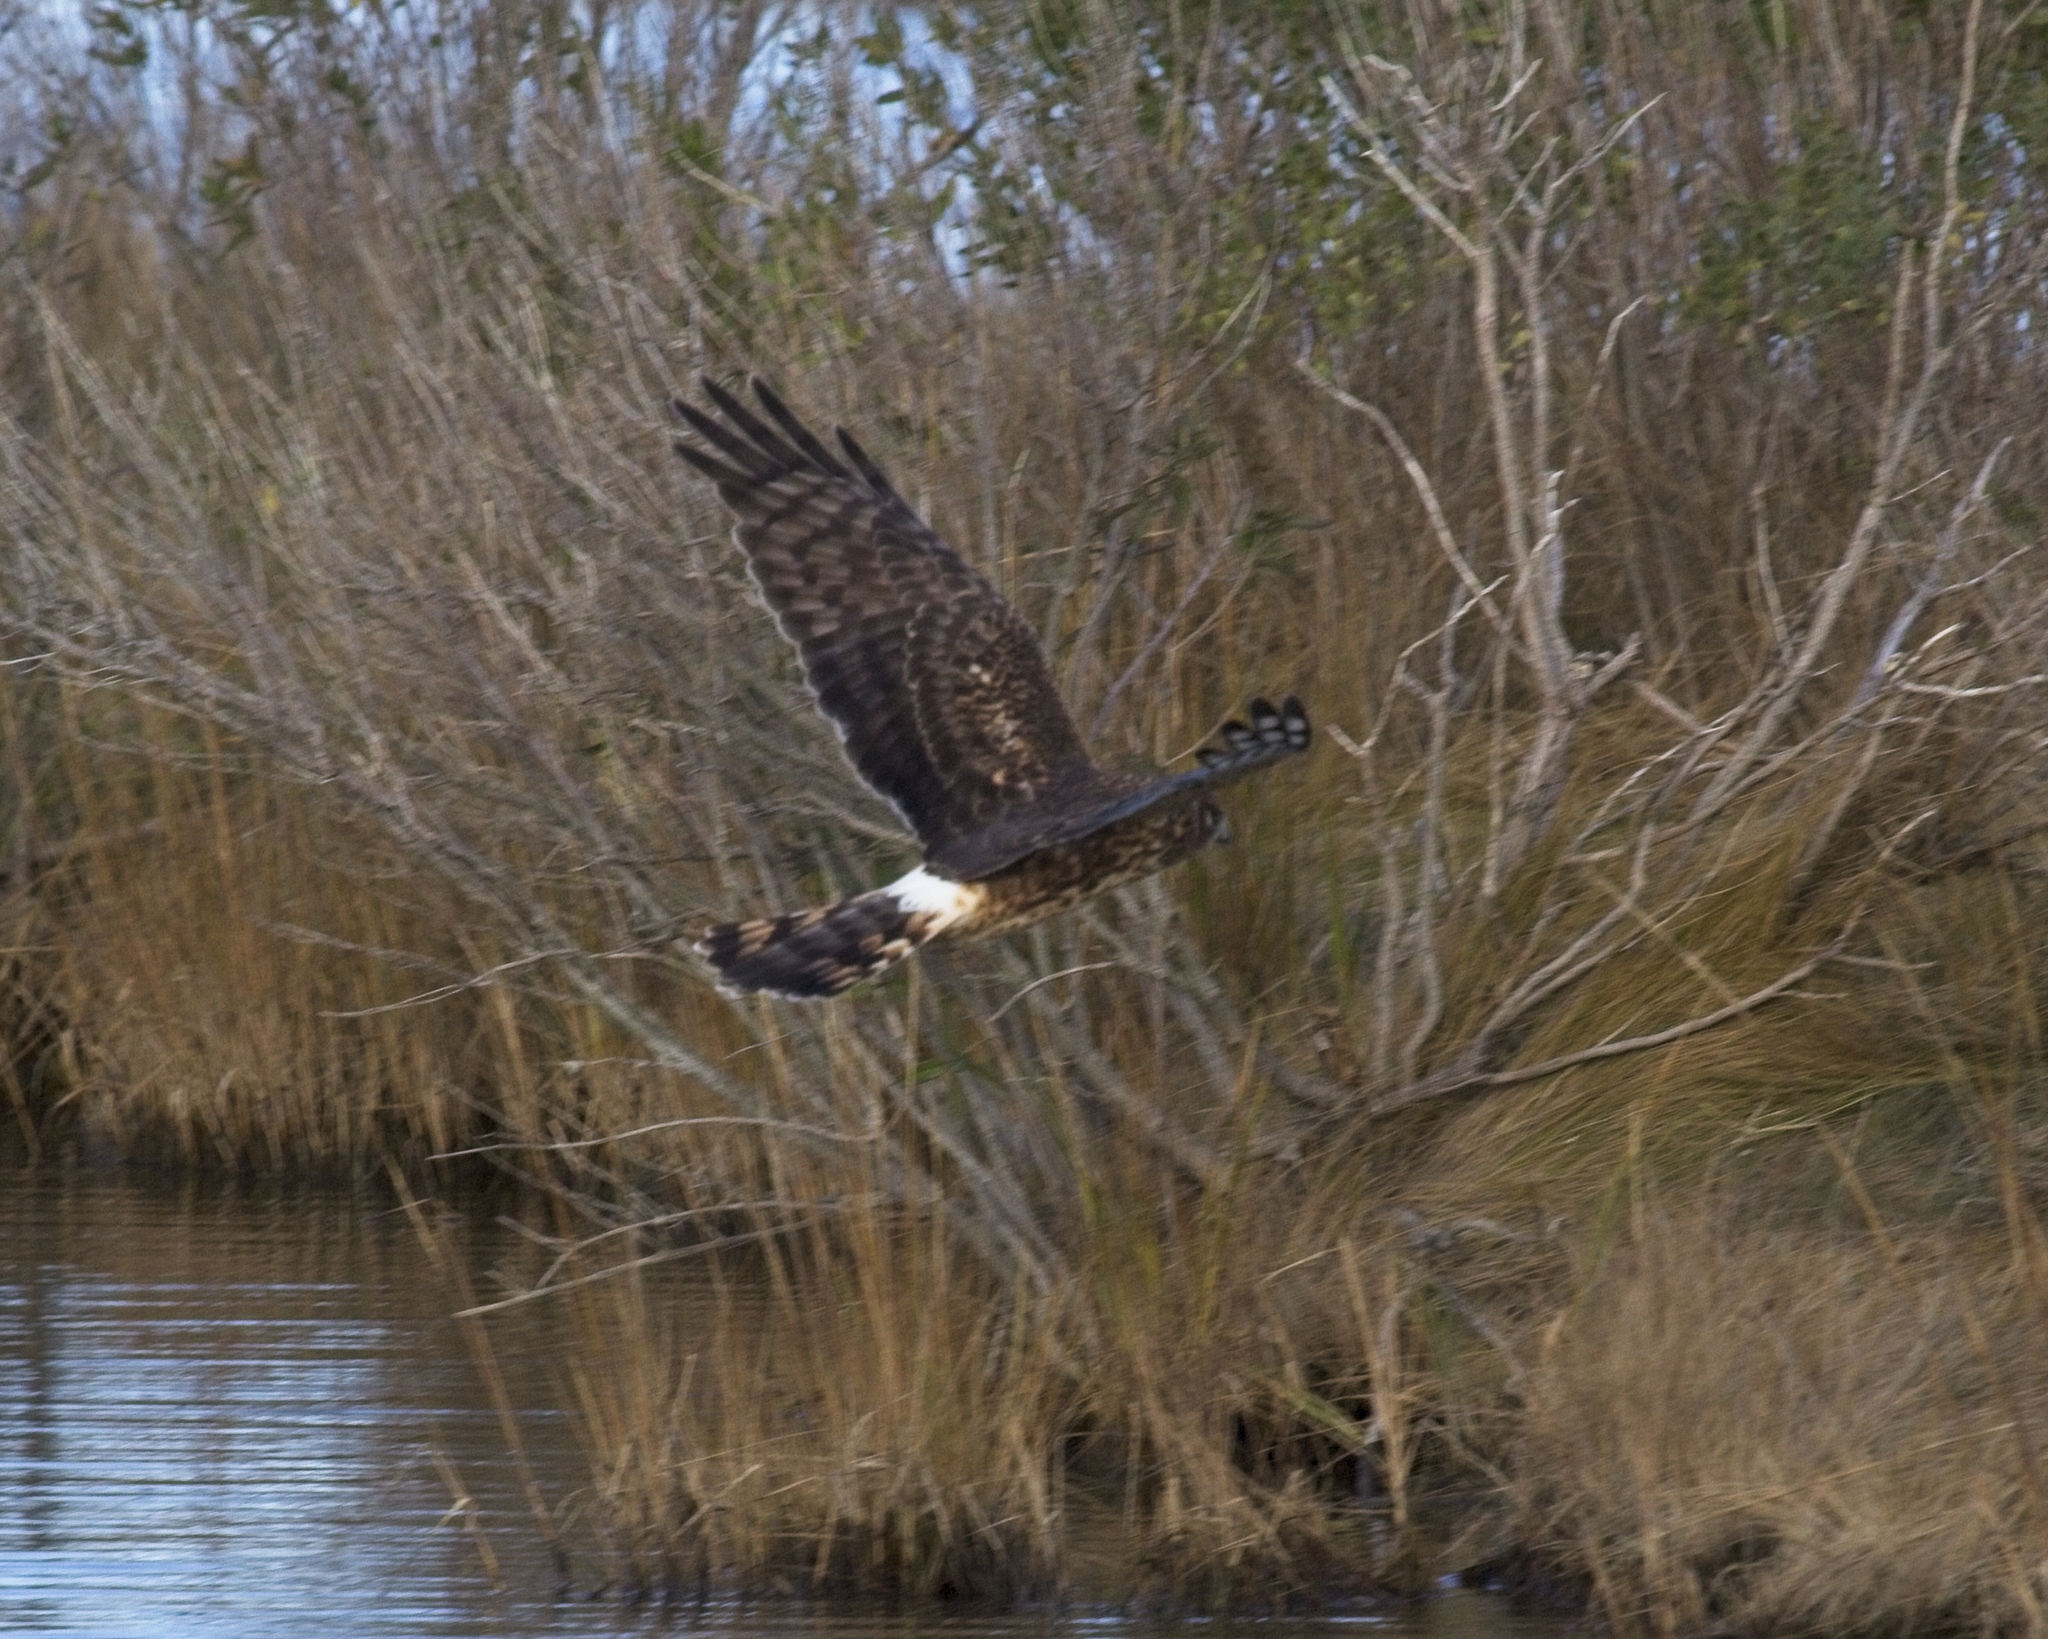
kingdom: Animalia
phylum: Chordata
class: Aves
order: Accipitriformes
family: Accipitridae
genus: Circus
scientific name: Circus cyaneus
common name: Hen harrier
